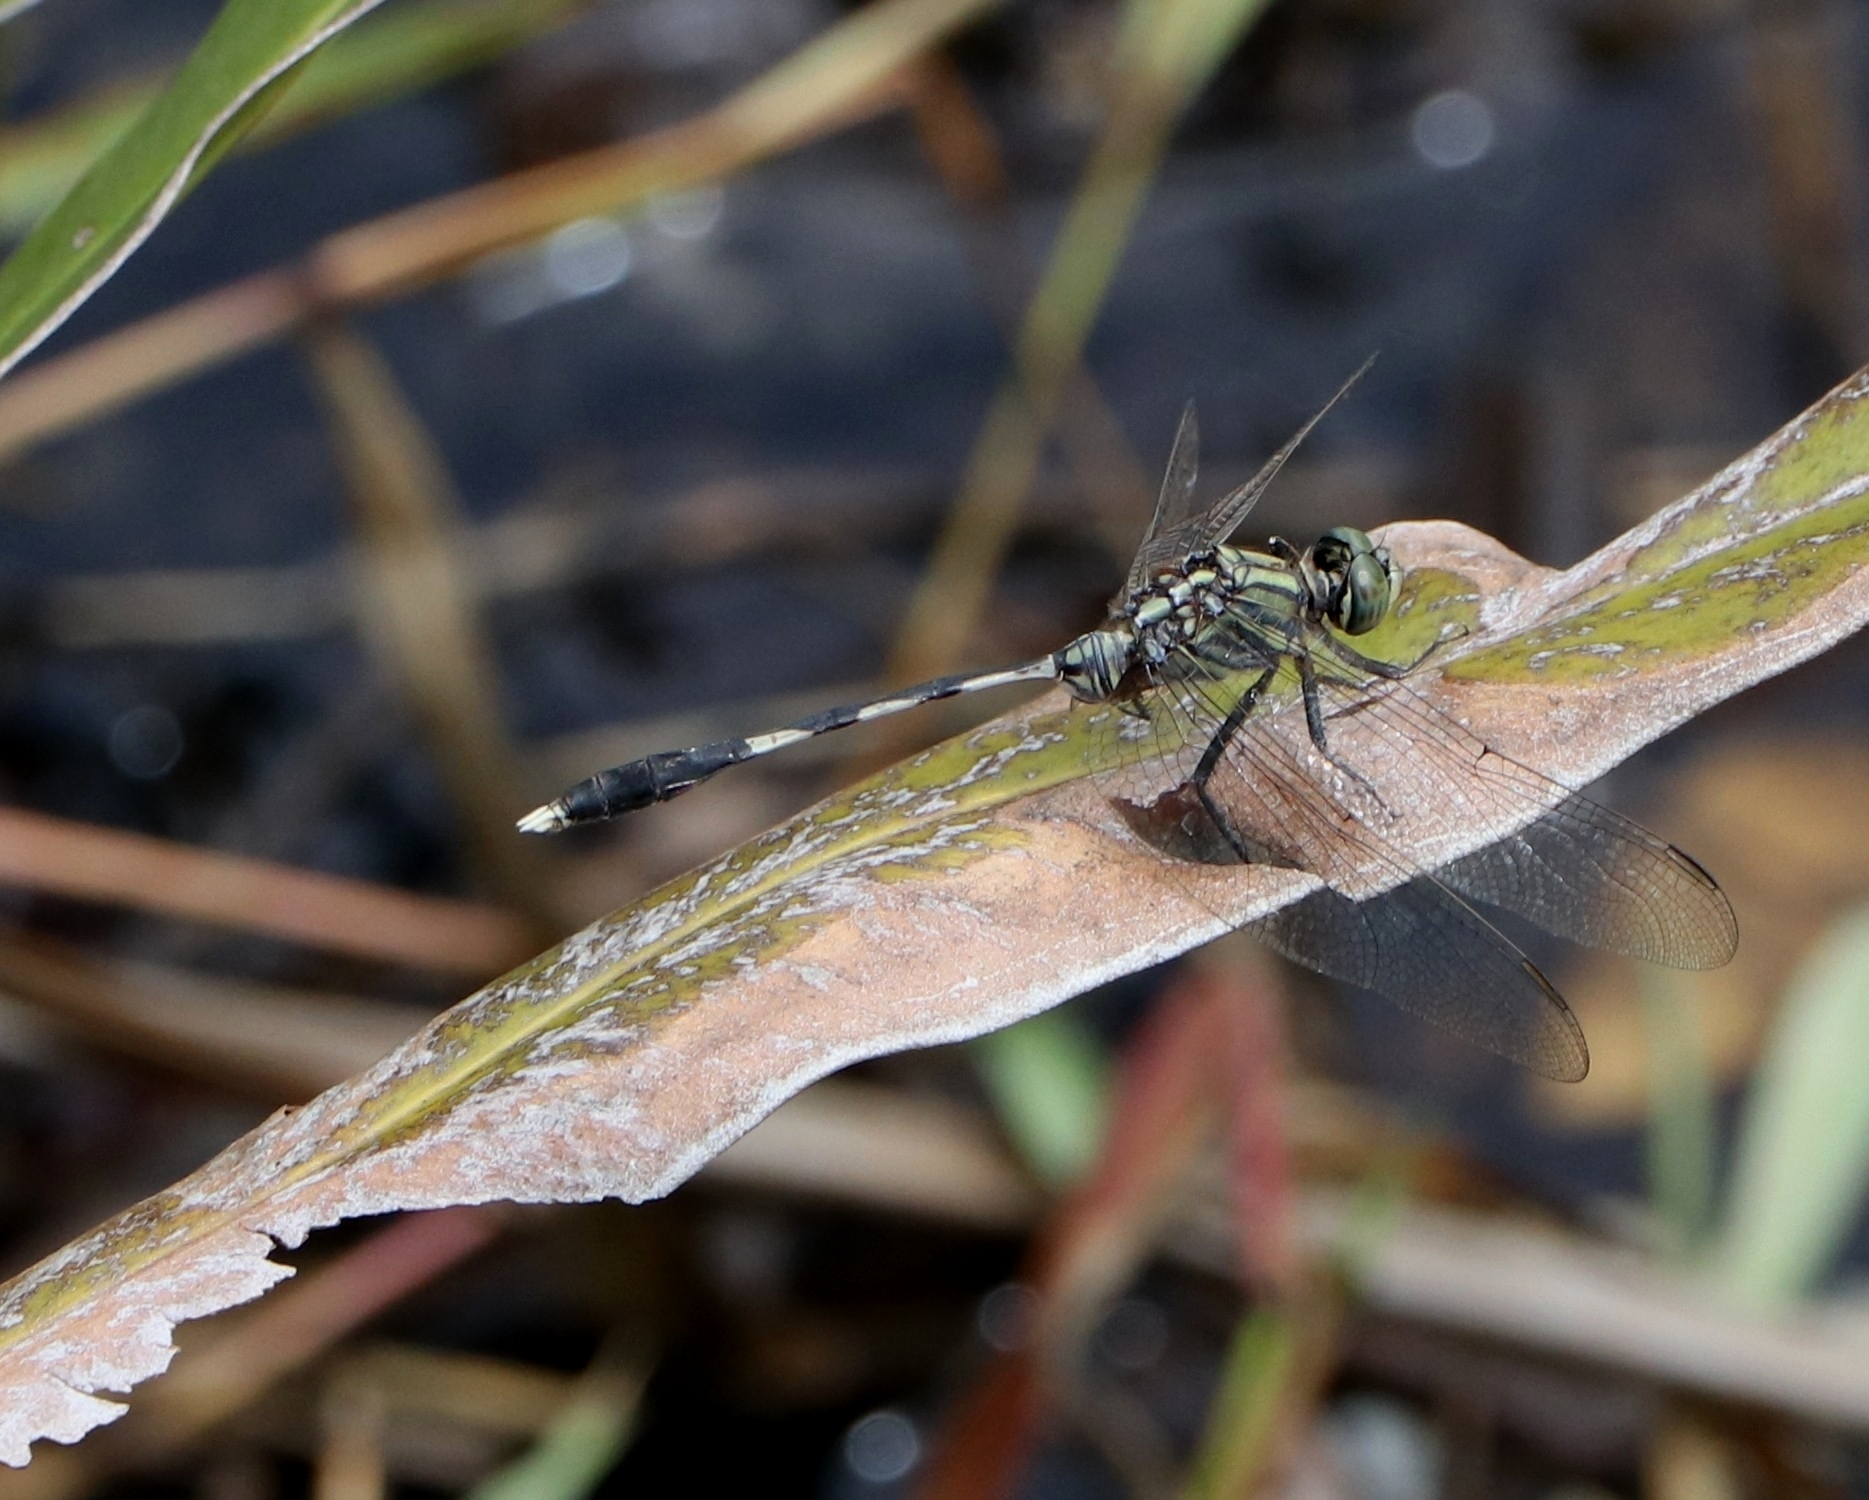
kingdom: Animalia
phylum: Arthropoda
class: Insecta
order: Odonata
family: Libellulidae
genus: Orthetrum
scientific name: Orthetrum sabina
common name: Slender skimmer
